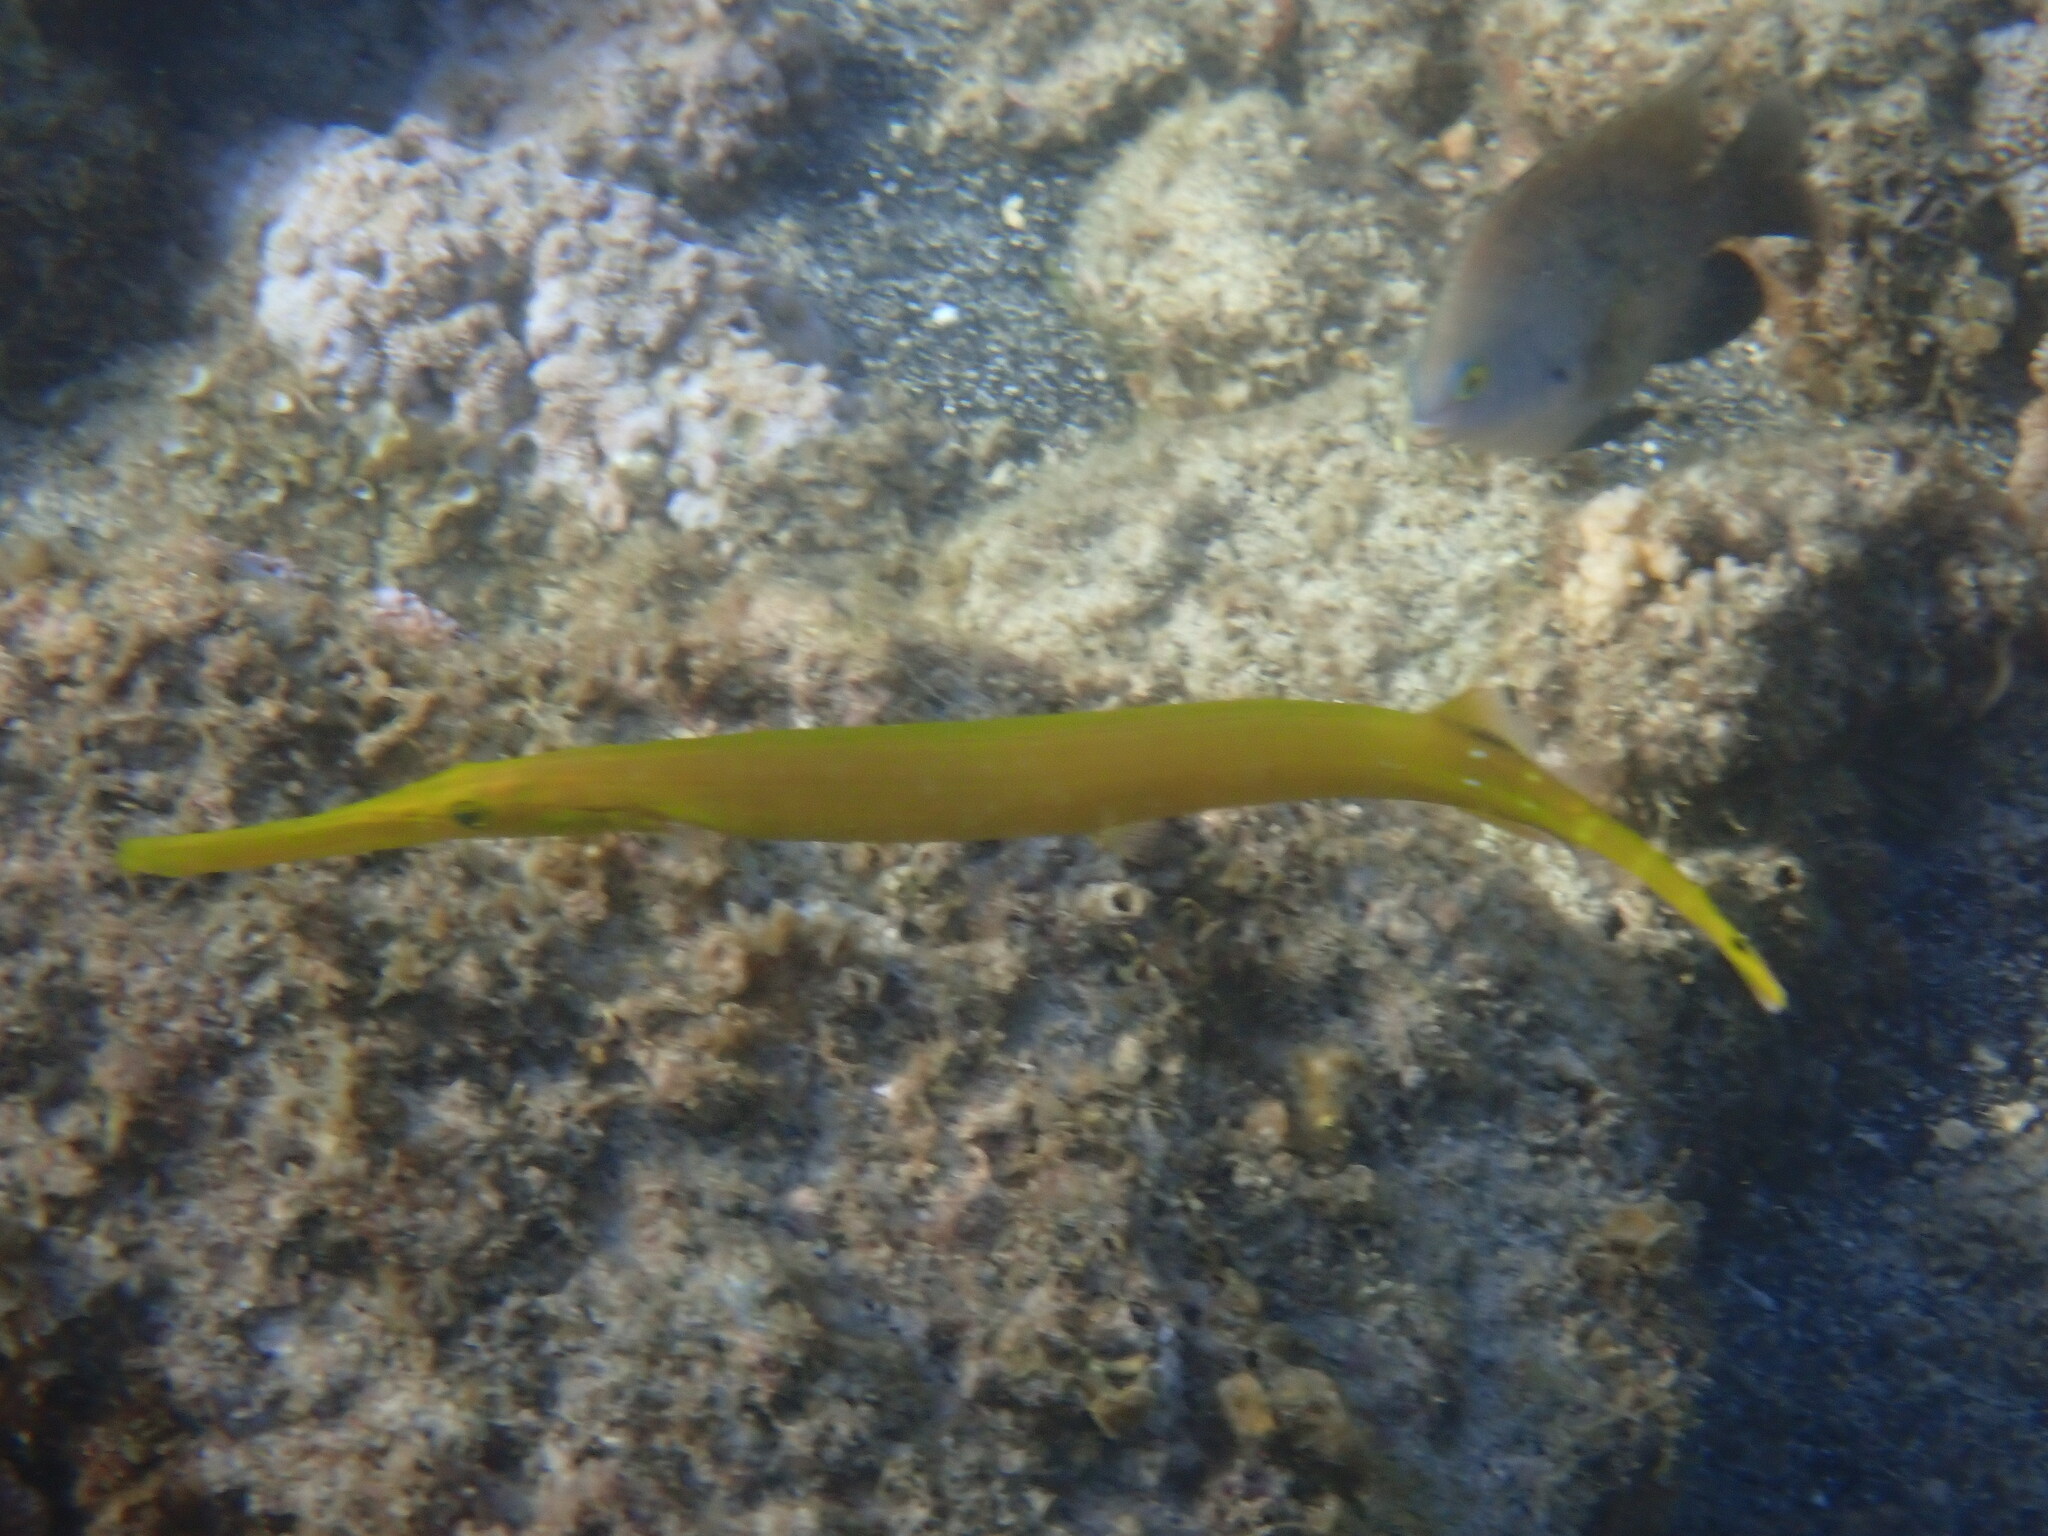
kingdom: Animalia
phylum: Chordata
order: Syngnathiformes
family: Aulostomidae
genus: Aulostomus
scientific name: Aulostomus chinensis
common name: Chinese trumpetfish
